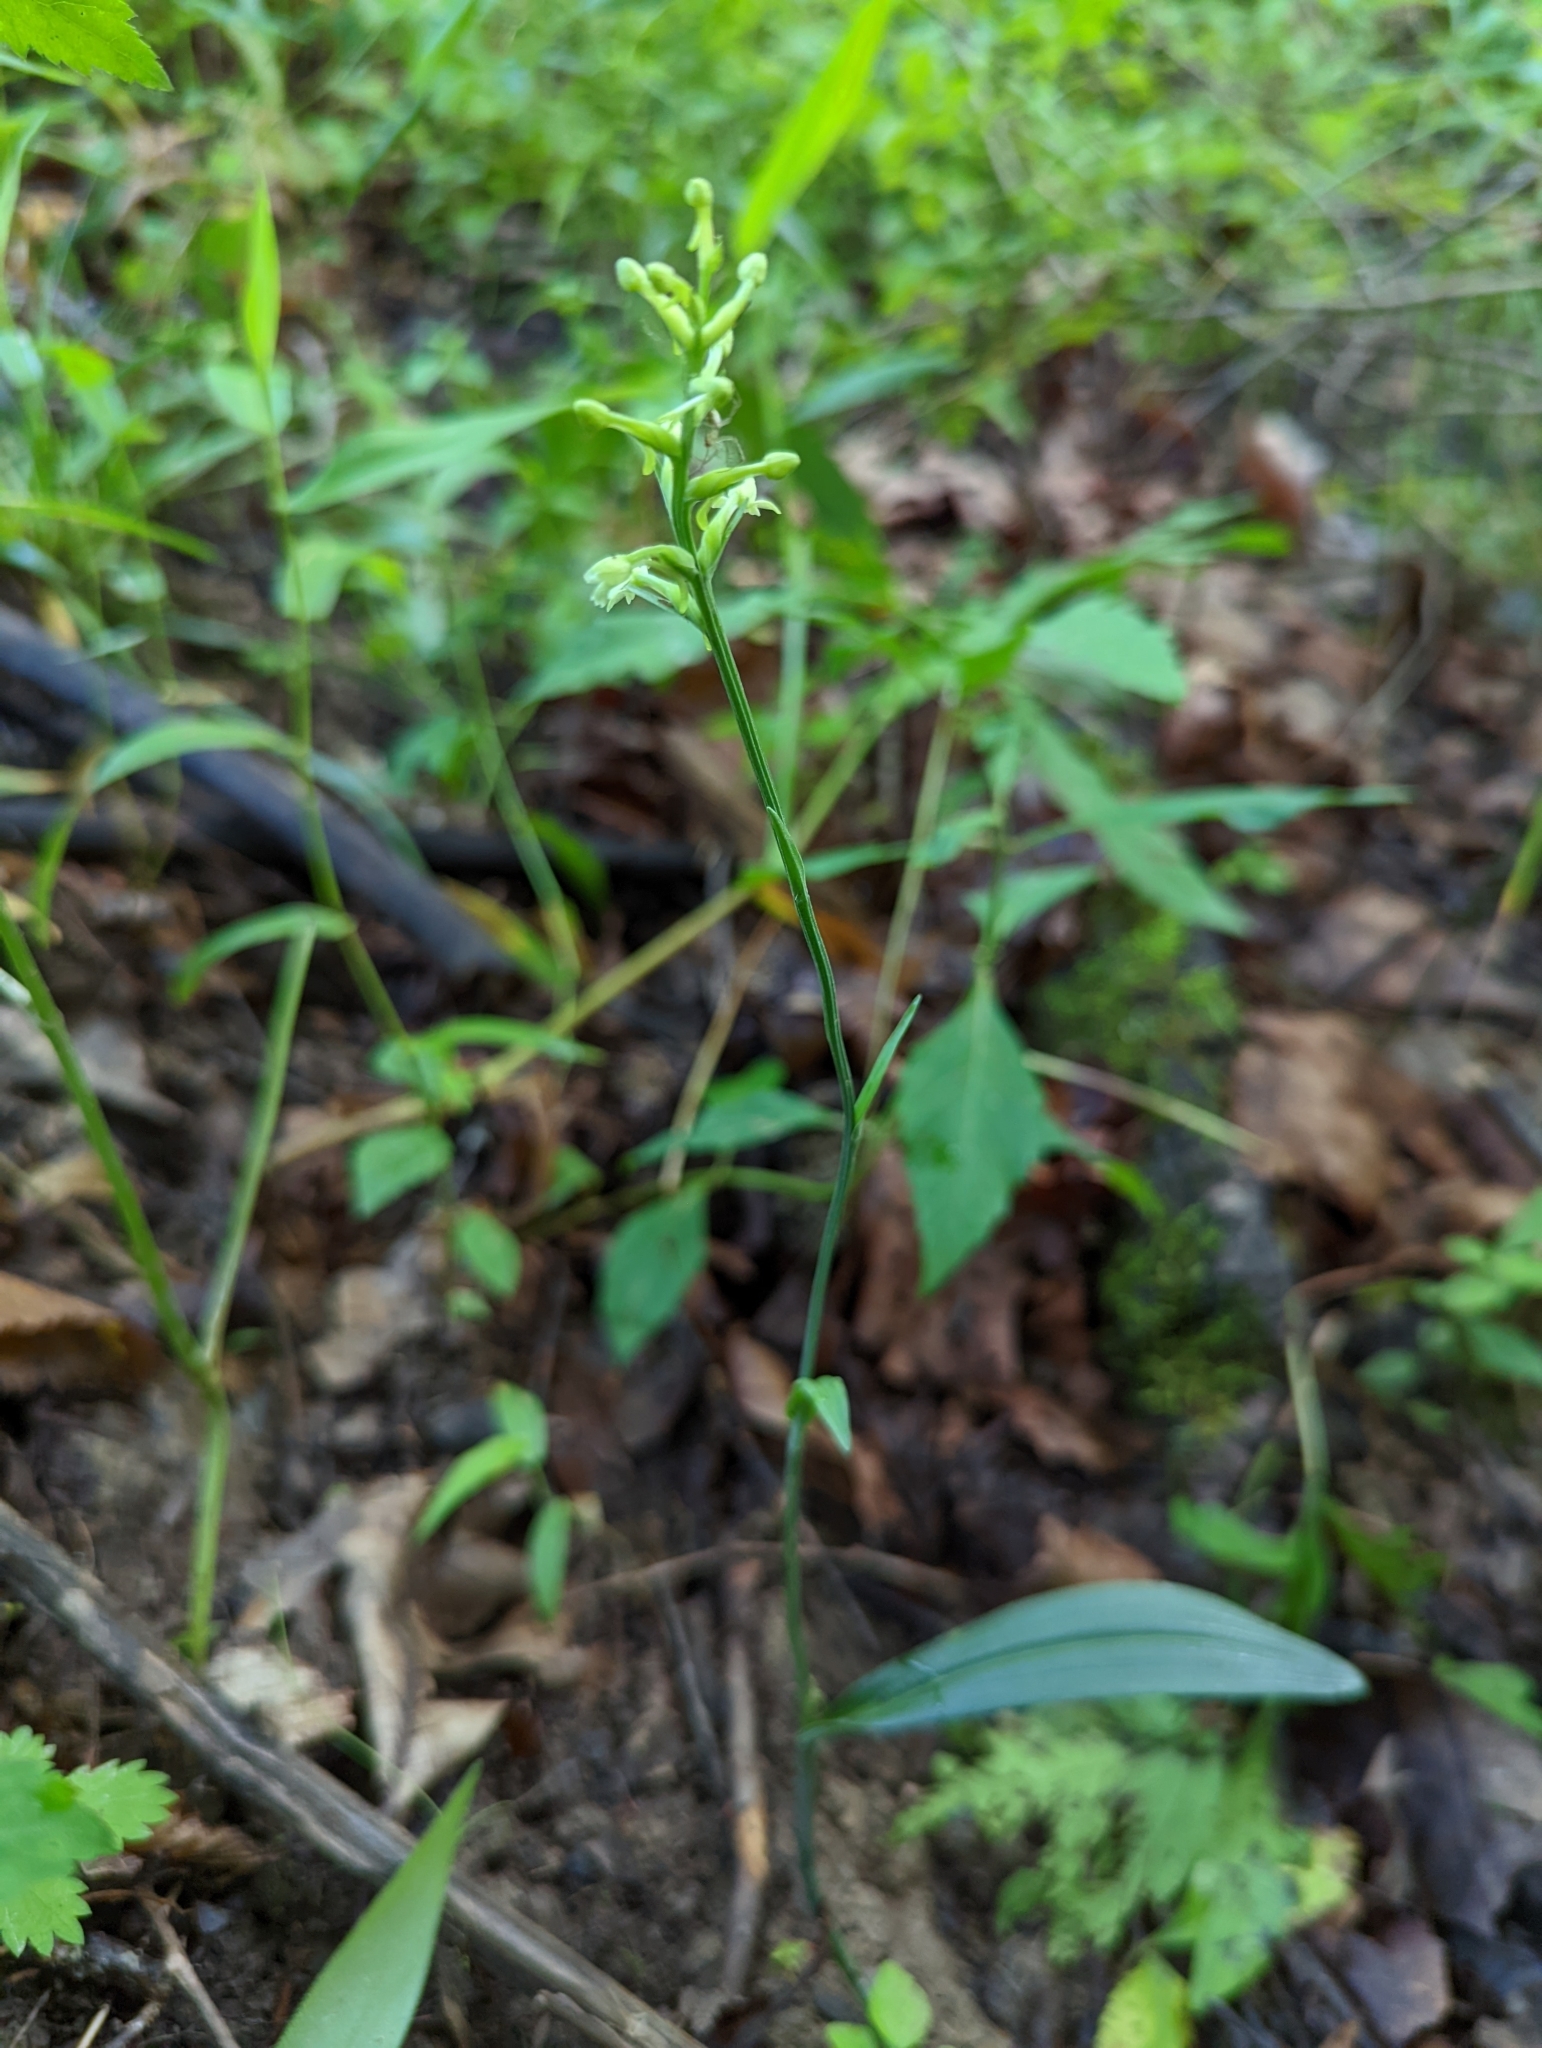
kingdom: Plantae
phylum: Tracheophyta
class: Liliopsida
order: Asparagales
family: Orchidaceae
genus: Platanthera
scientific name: Platanthera clavellata
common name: Club-spur orchid
